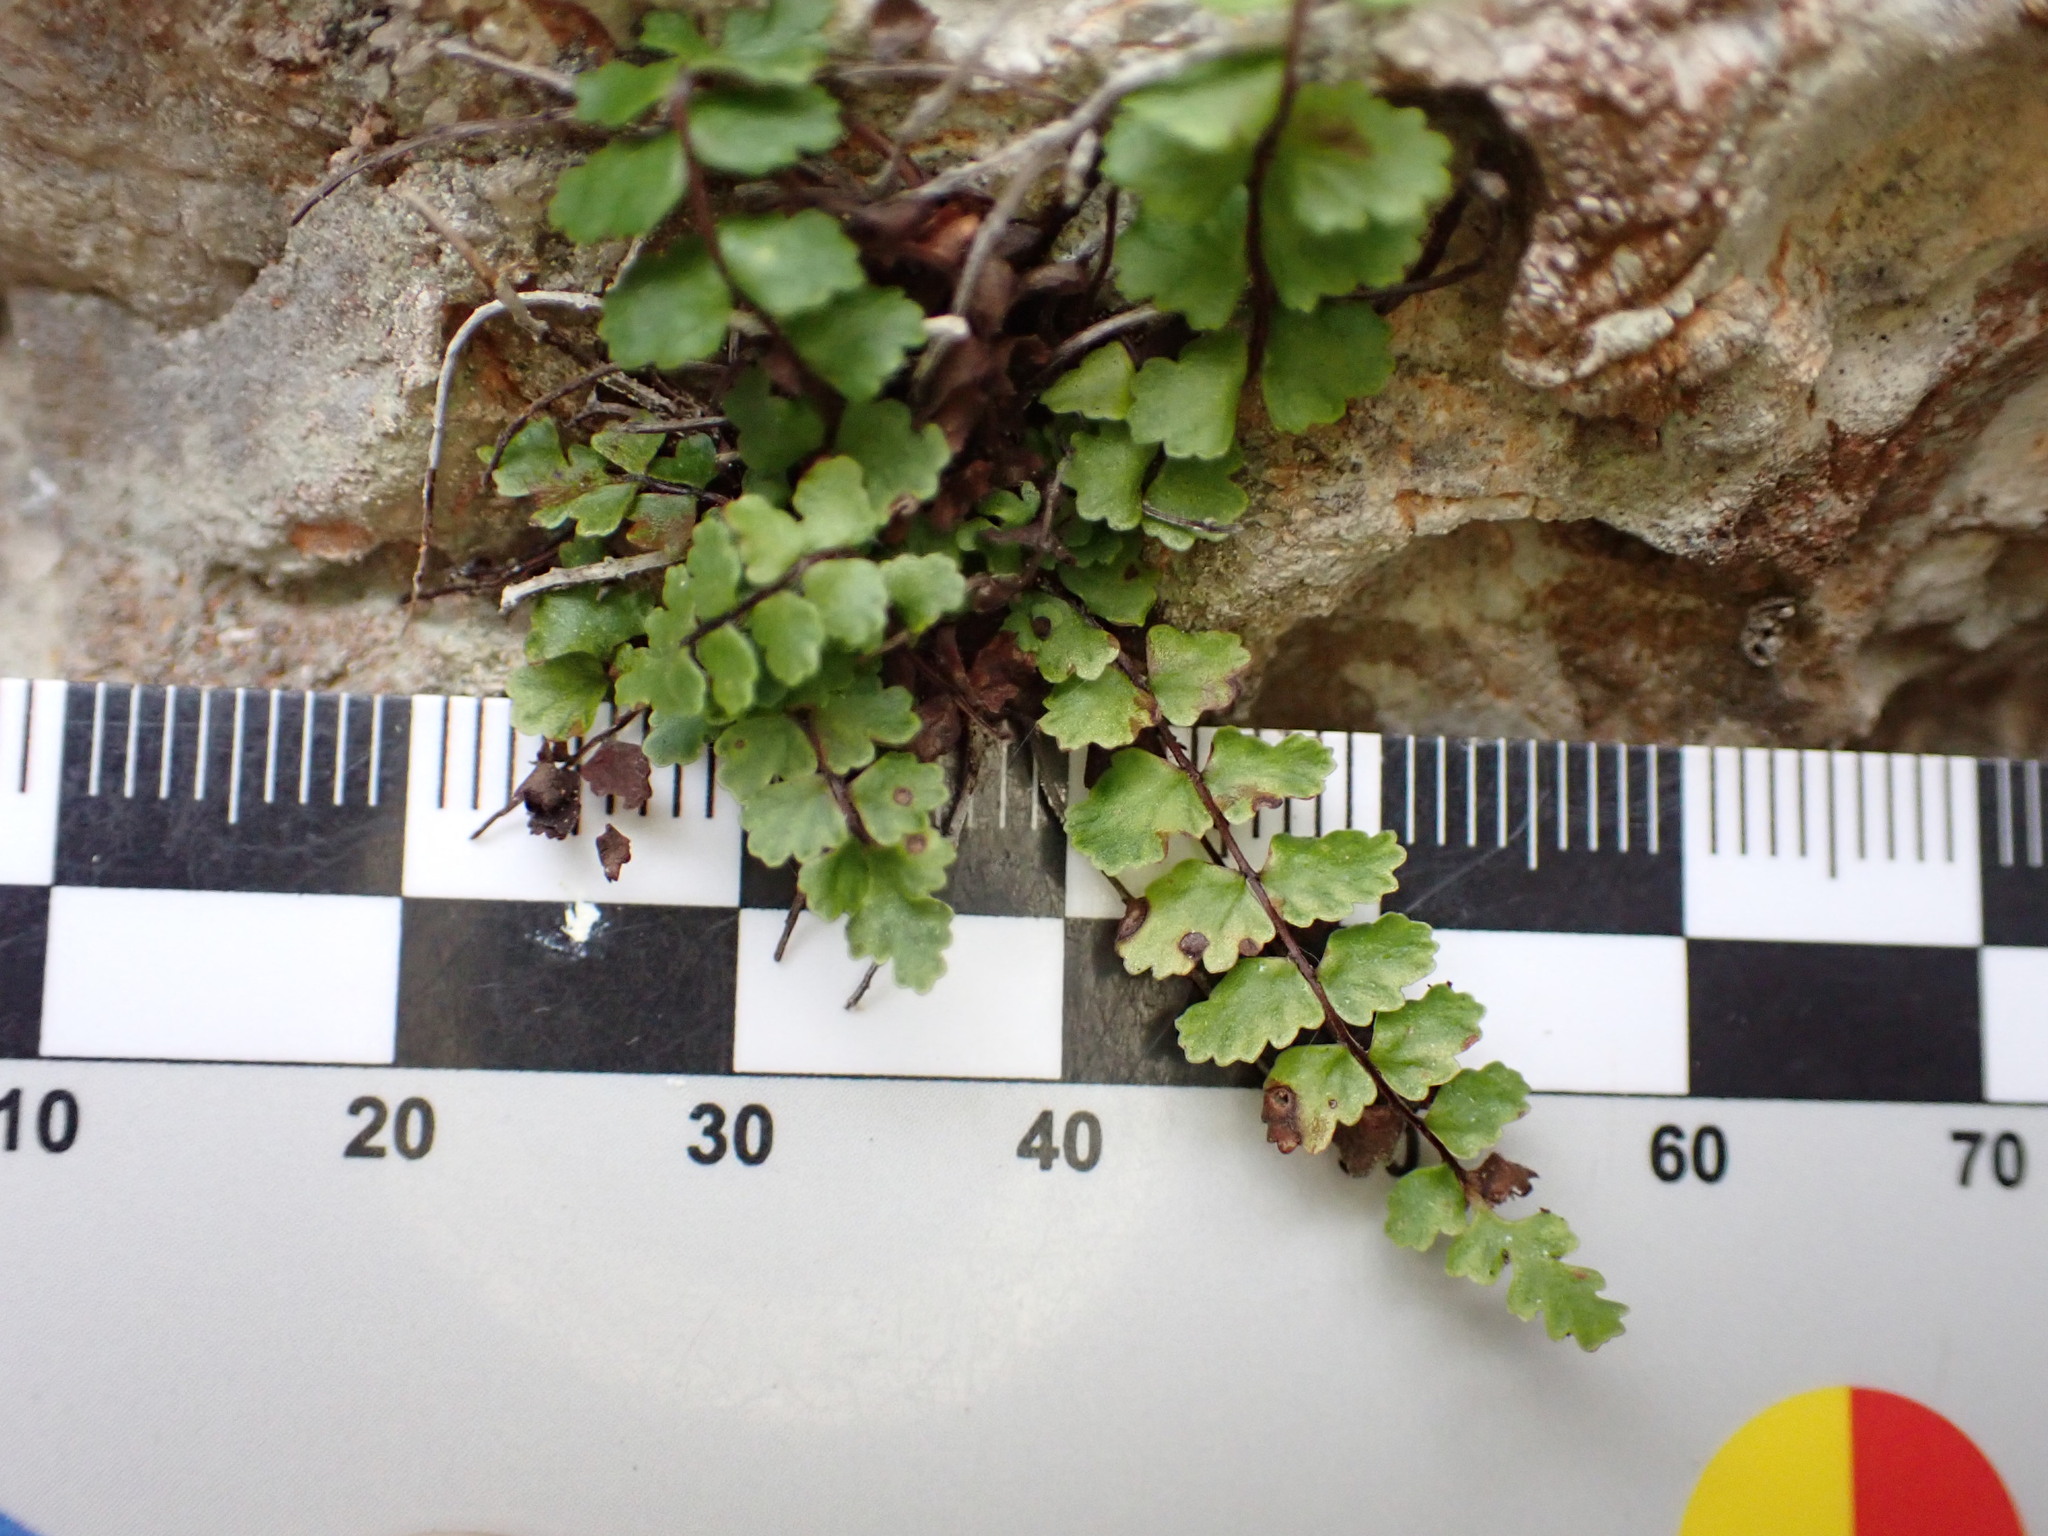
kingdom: Plantae
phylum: Tracheophyta
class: Polypodiopsida
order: Polypodiales
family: Aspleniaceae
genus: Asplenium
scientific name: Asplenium trichomanes
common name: Maidenhair spleenwort
